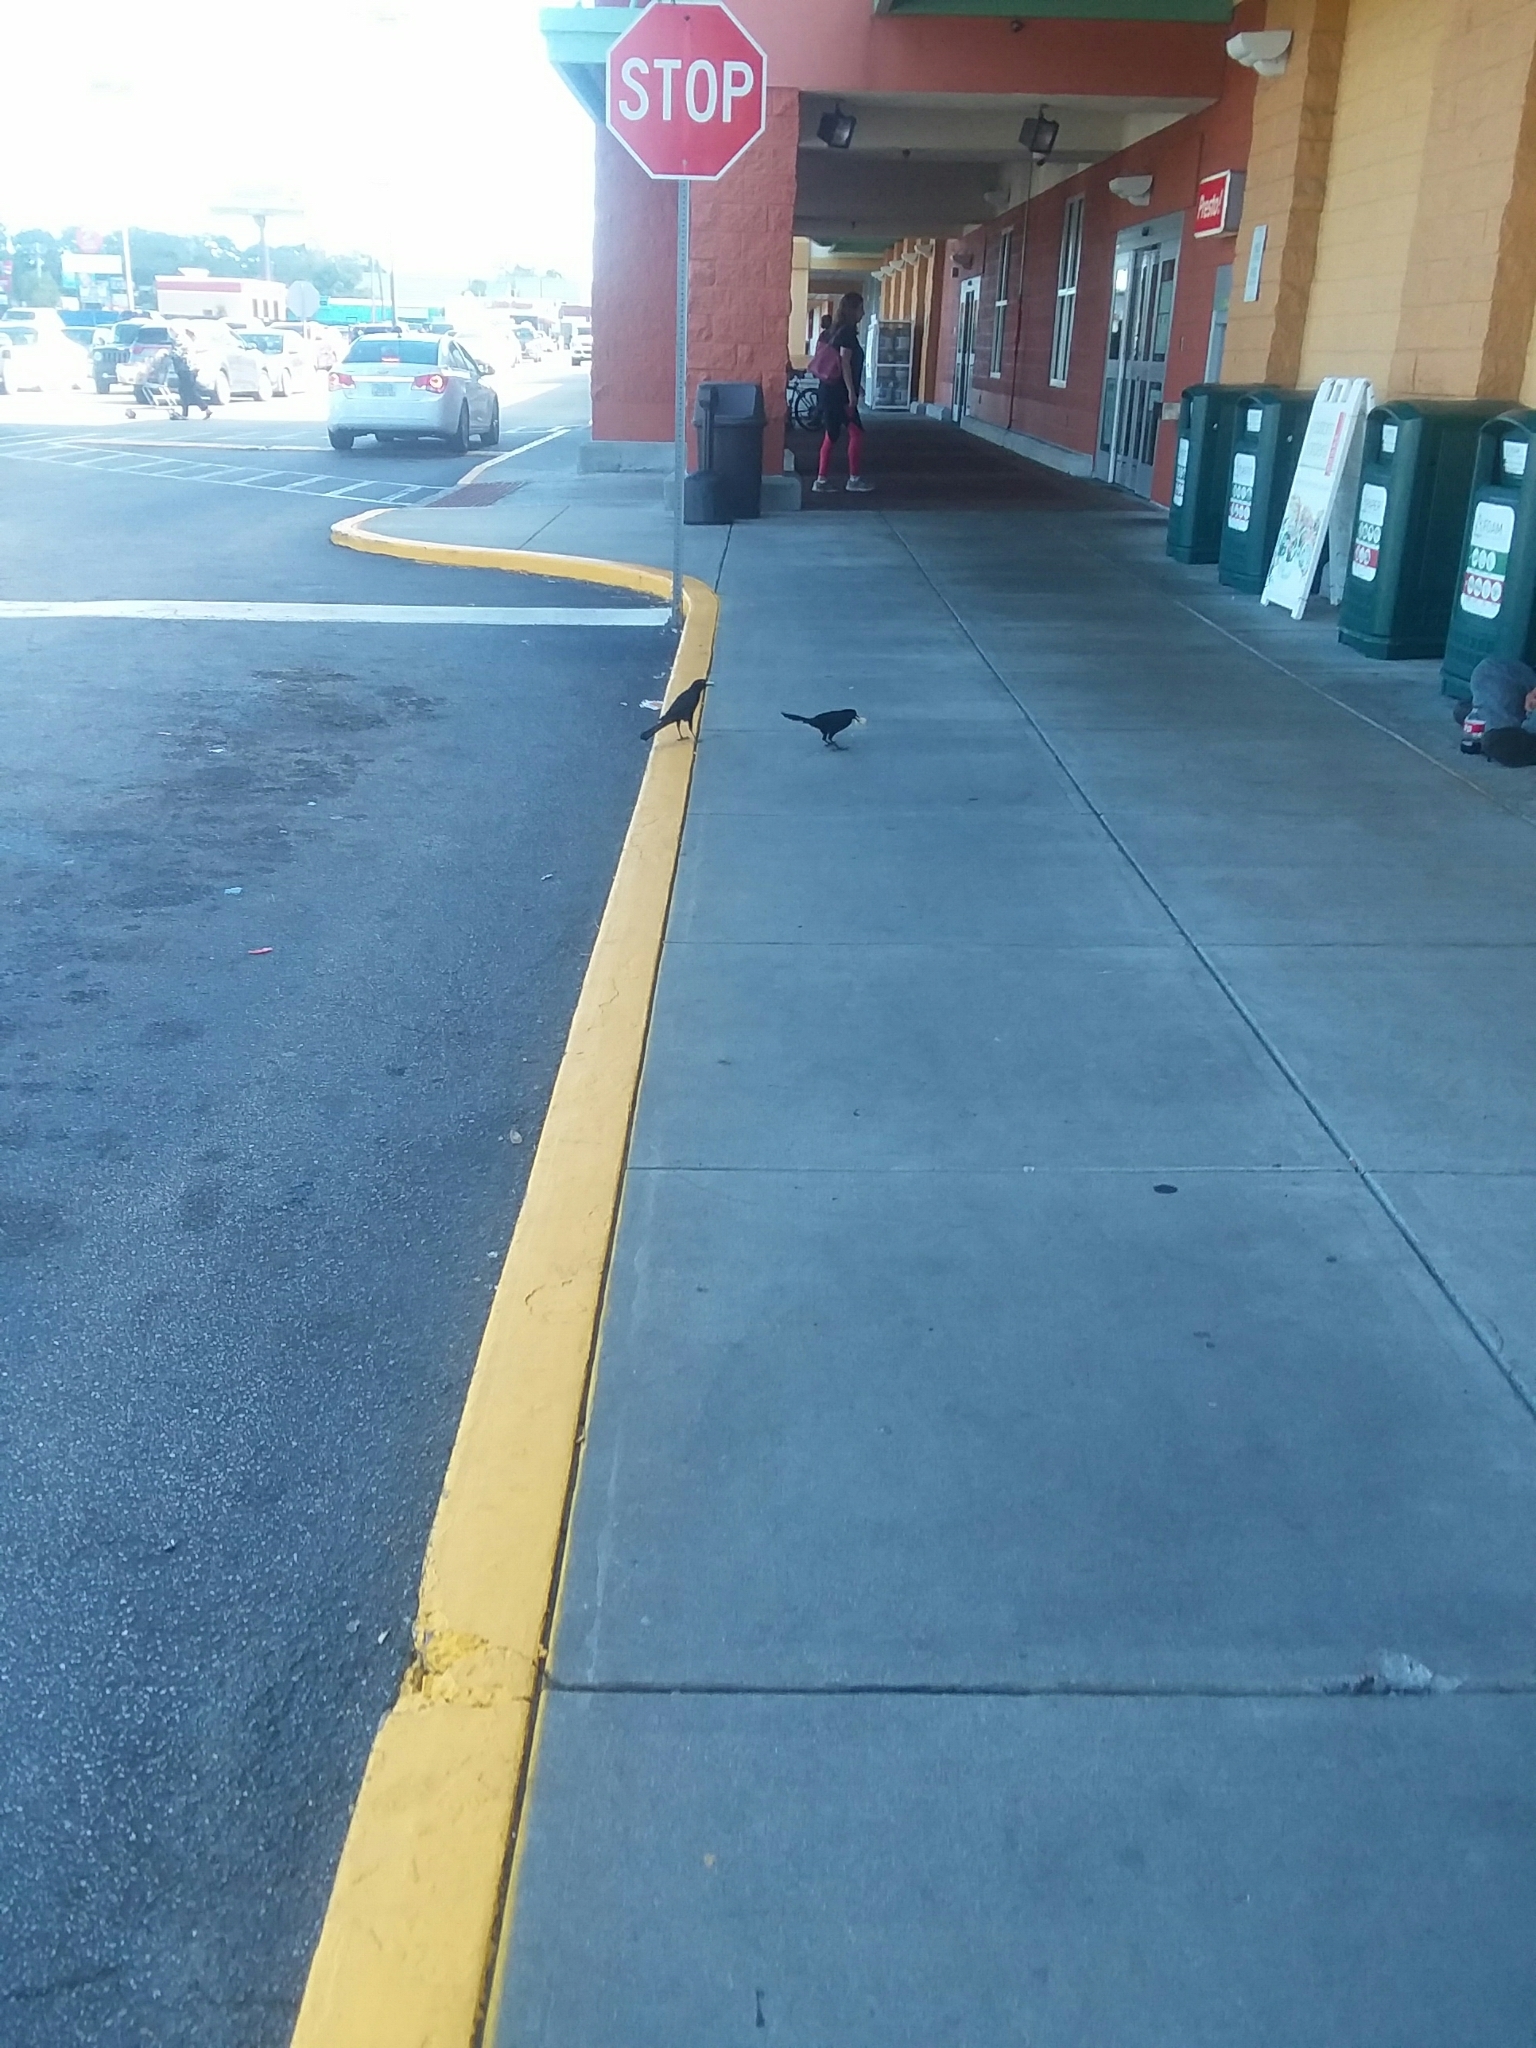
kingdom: Animalia
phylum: Chordata
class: Aves
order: Passeriformes
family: Icteridae
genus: Quiscalus
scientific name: Quiscalus major
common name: Boat-tailed grackle
